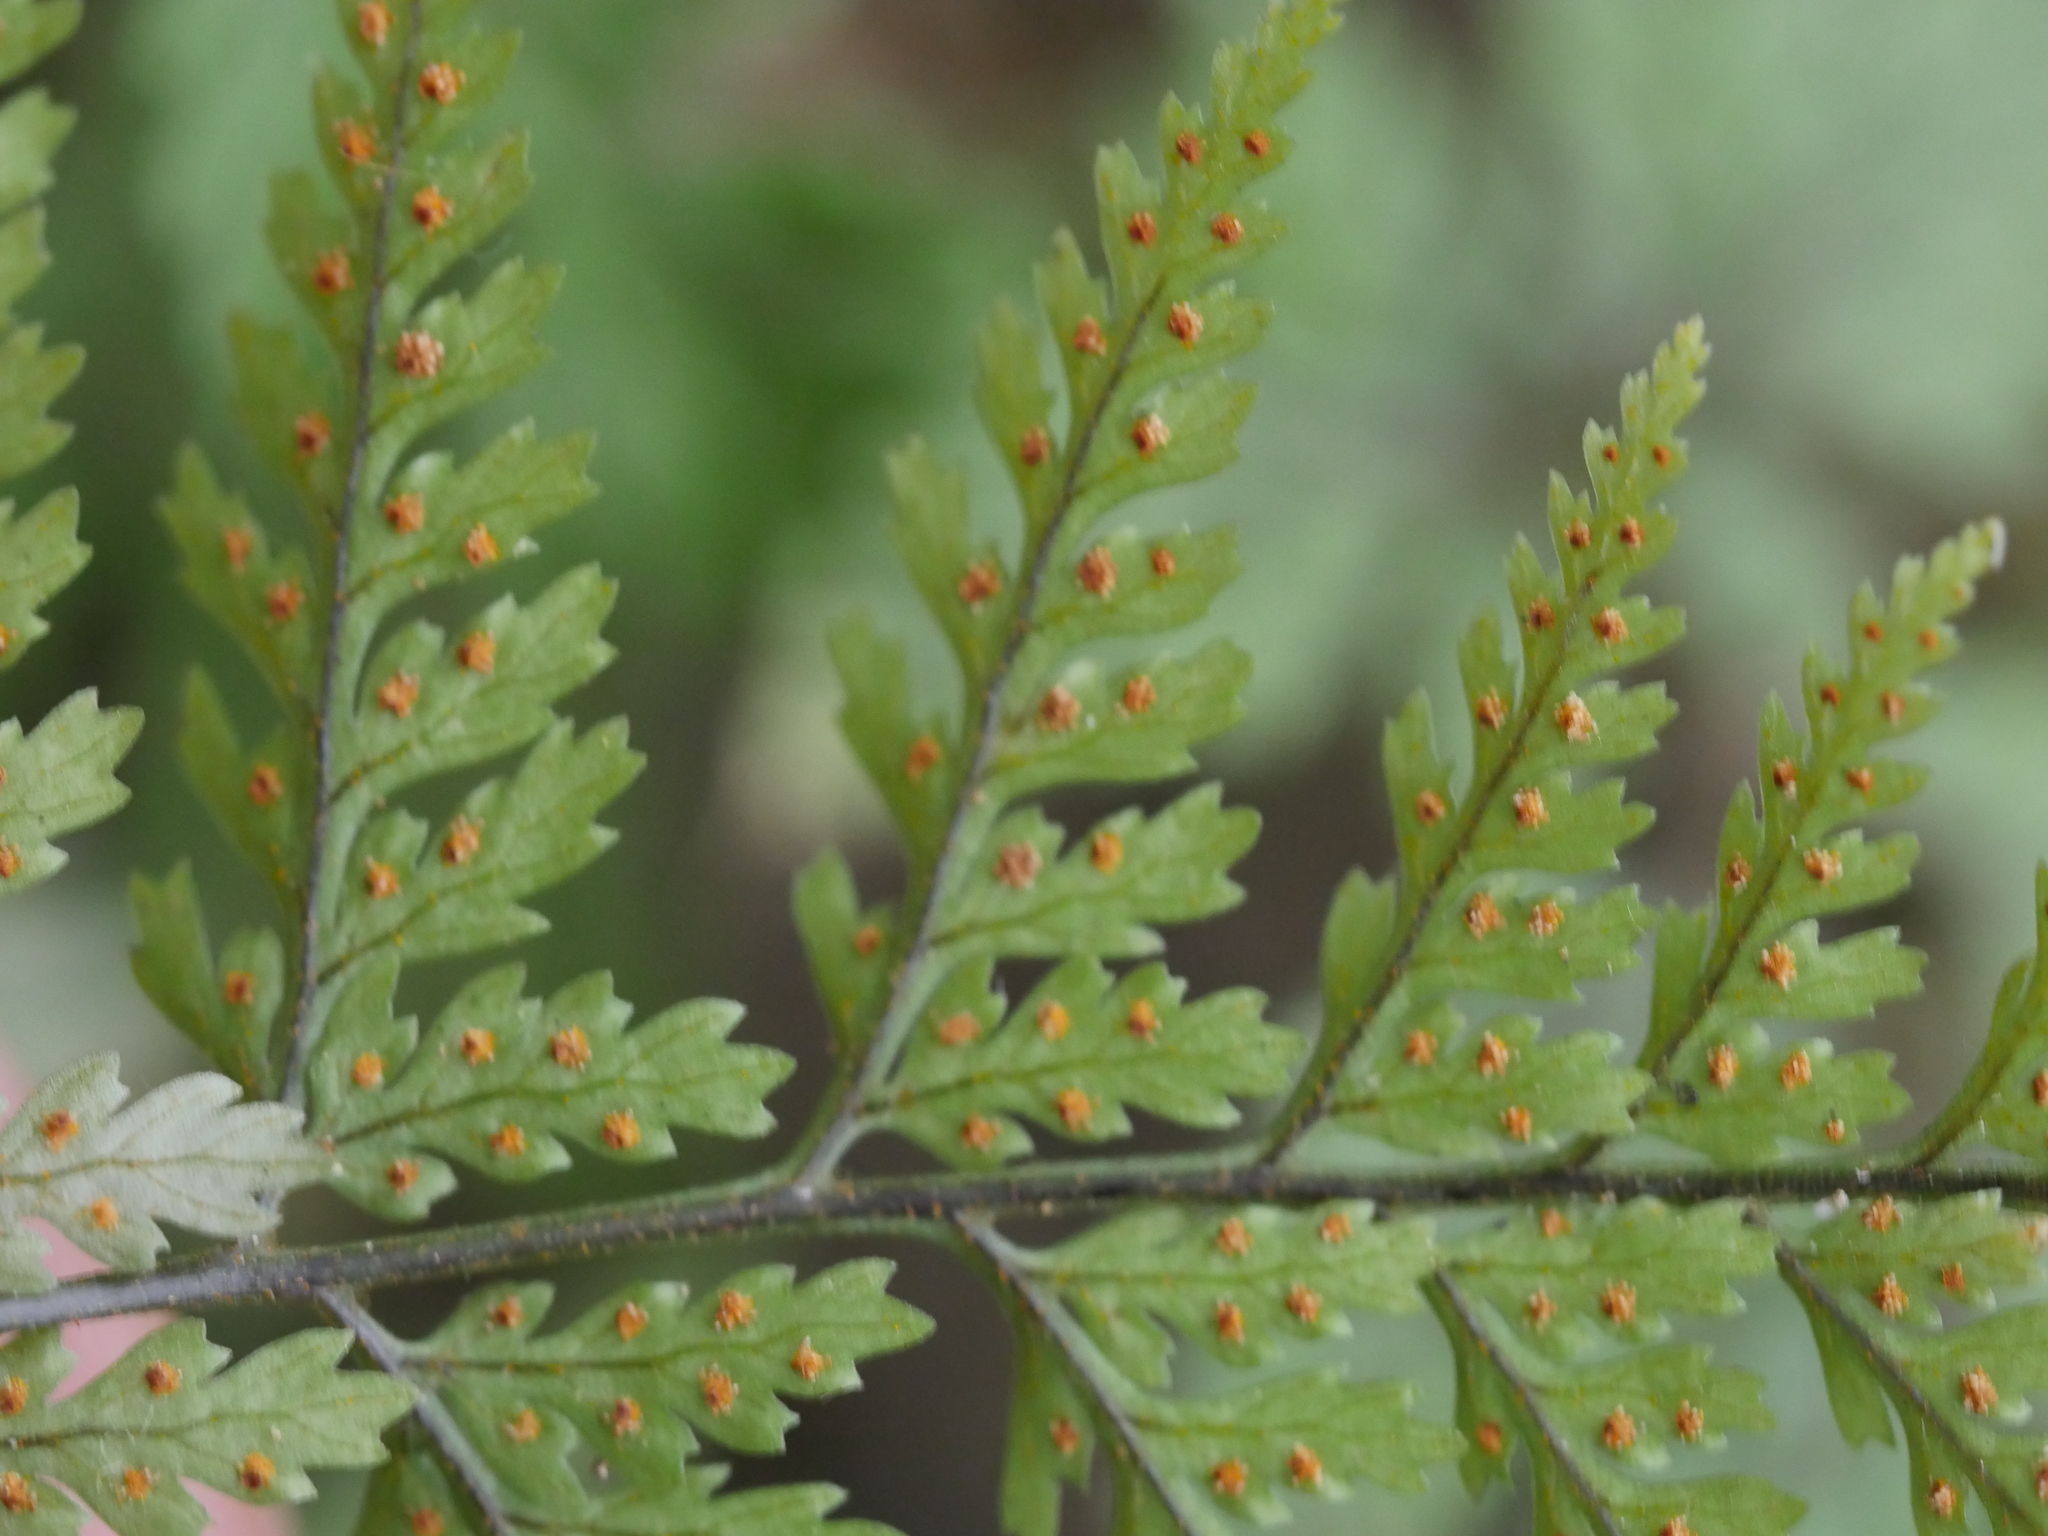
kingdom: Plantae
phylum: Tracheophyta
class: Polypodiopsida
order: Polypodiales
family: Dryopteridaceae
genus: Parapolystichum
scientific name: Parapolystichum glabellum
